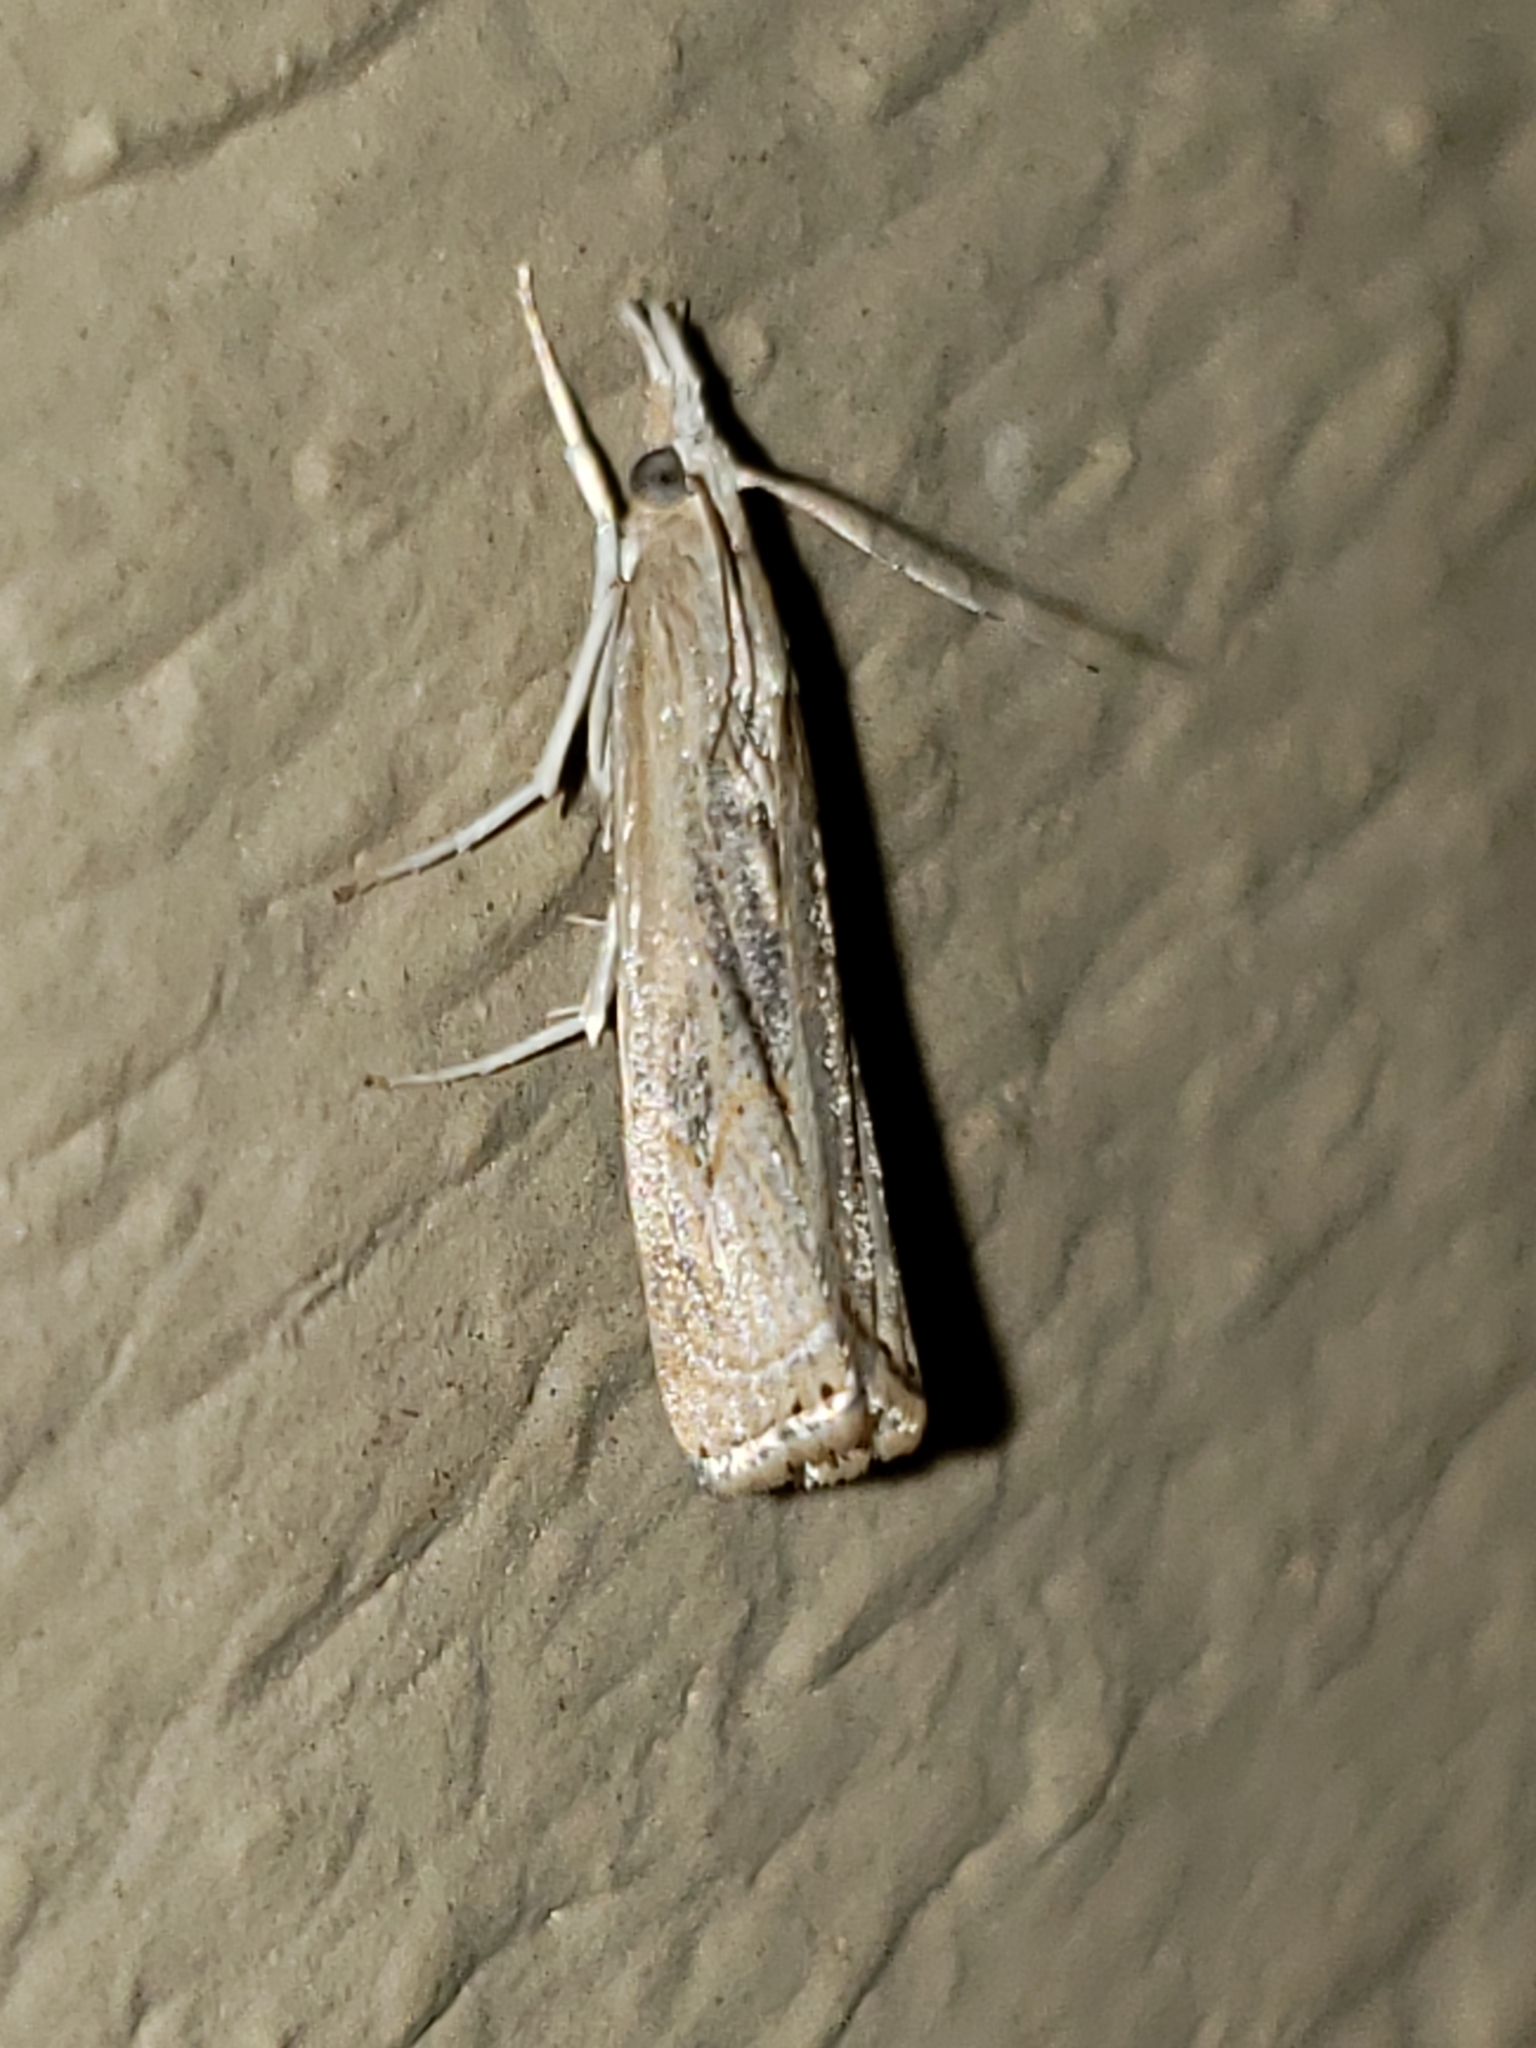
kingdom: Animalia
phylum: Arthropoda
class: Insecta
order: Lepidoptera
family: Crambidae
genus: Parapediasia
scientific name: Parapediasia teterellus
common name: Bluegrass webworm moth
